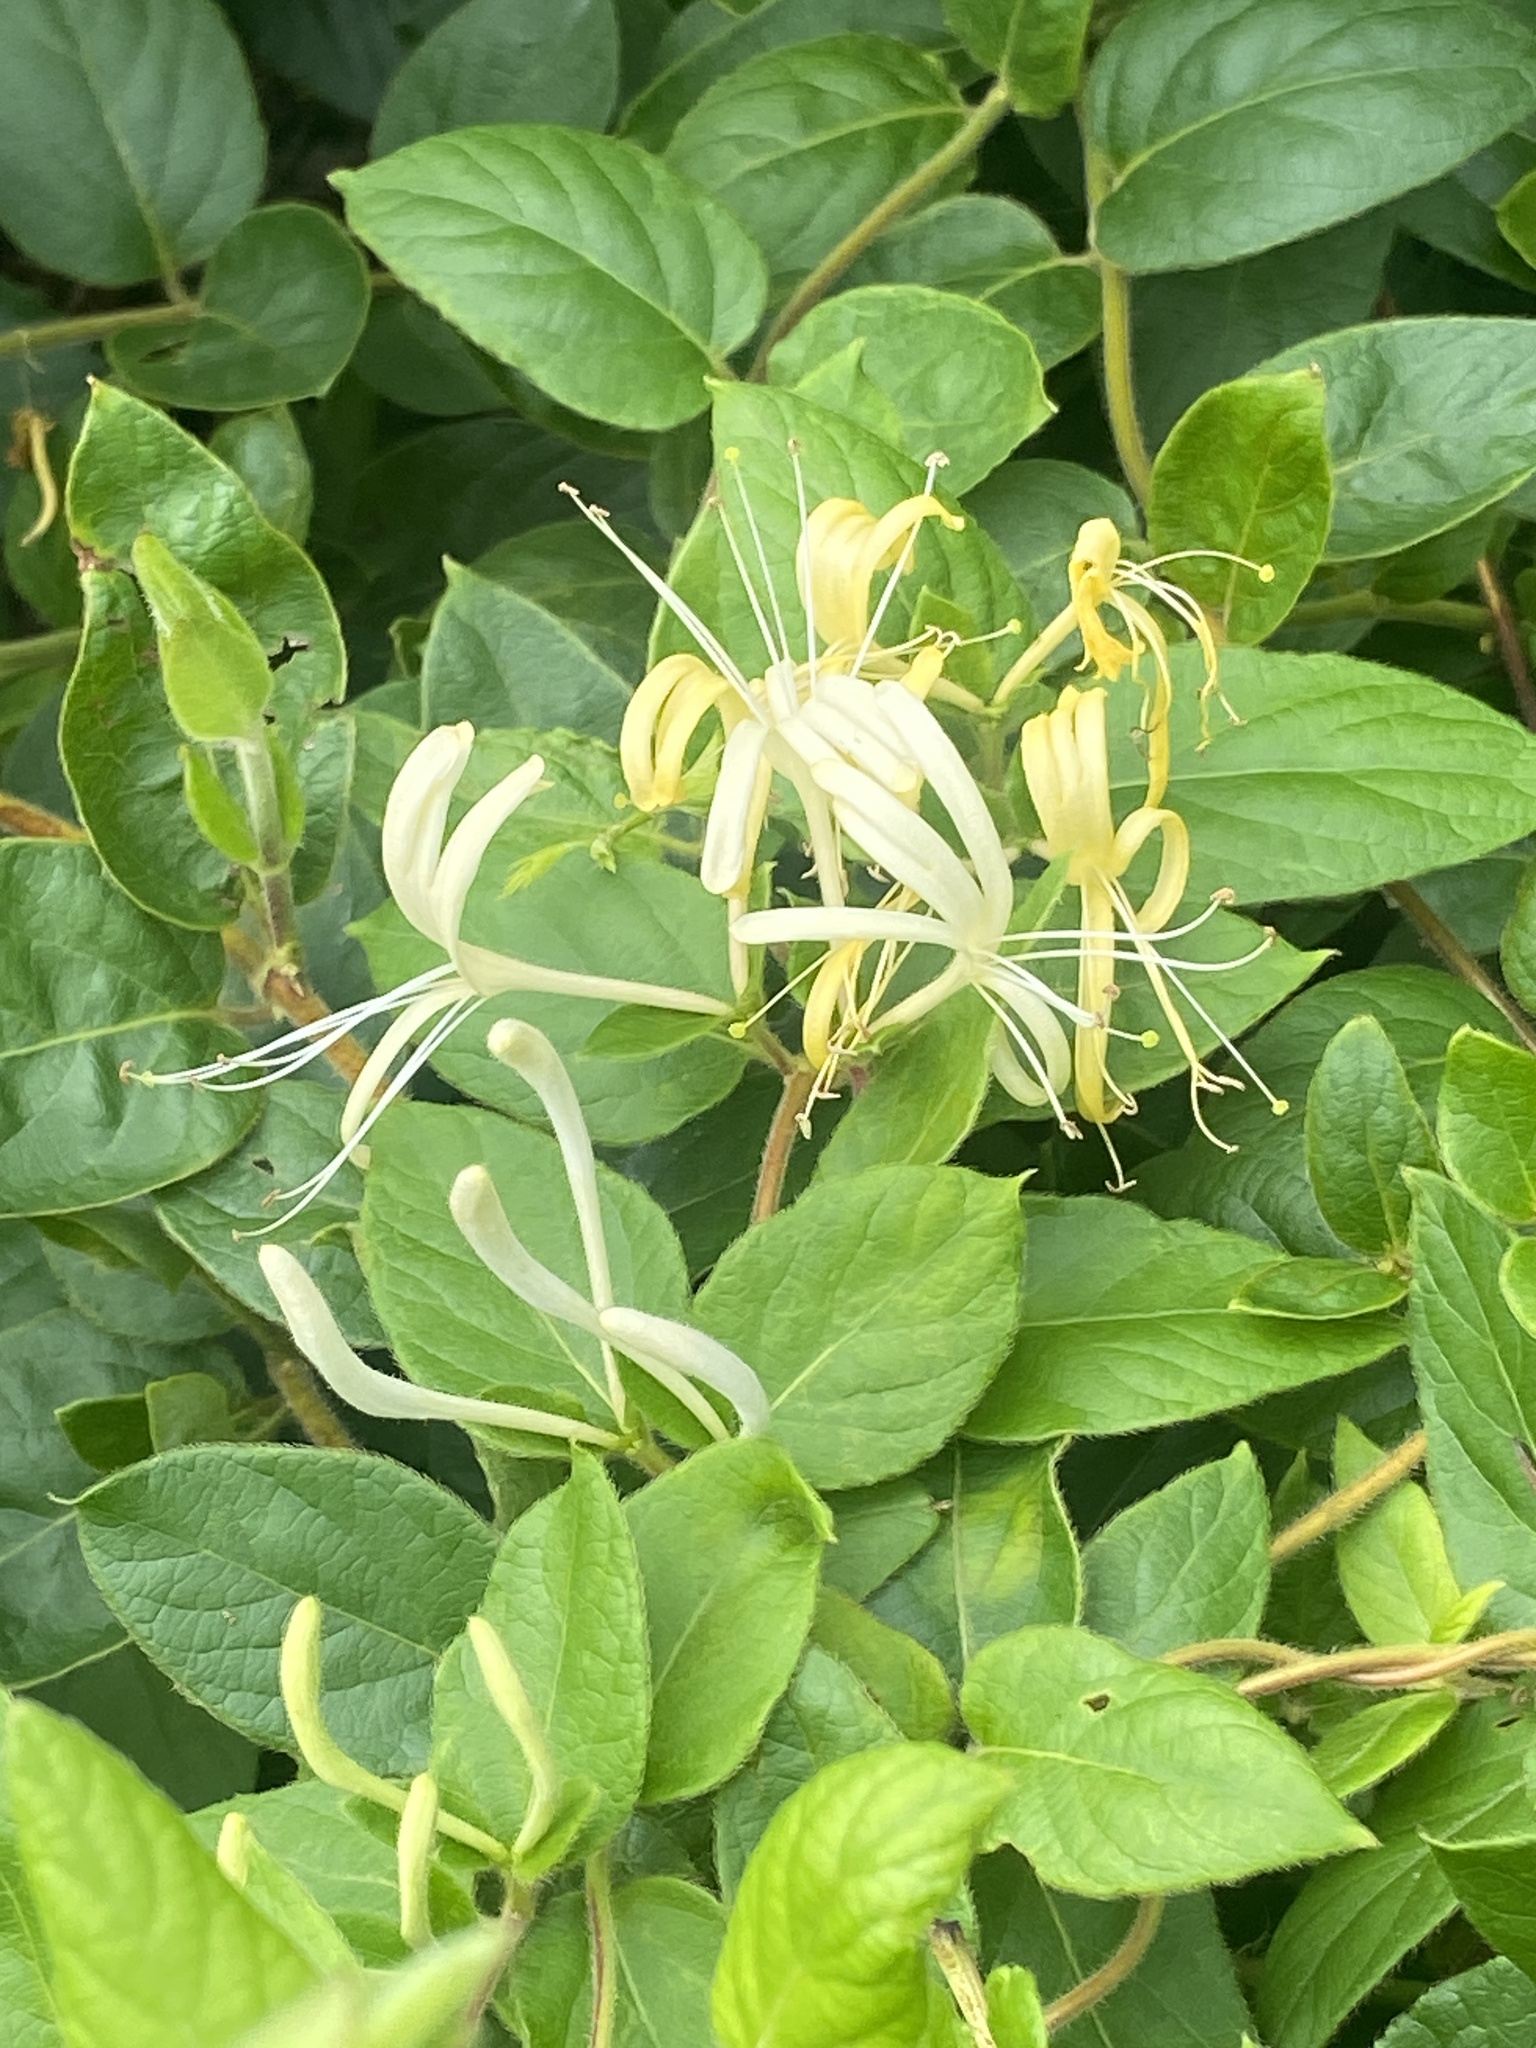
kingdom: Plantae
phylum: Tracheophyta
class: Magnoliopsida
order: Dipsacales
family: Caprifoliaceae
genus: Lonicera
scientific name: Lonicera japonica
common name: Japanese honeysuckle
